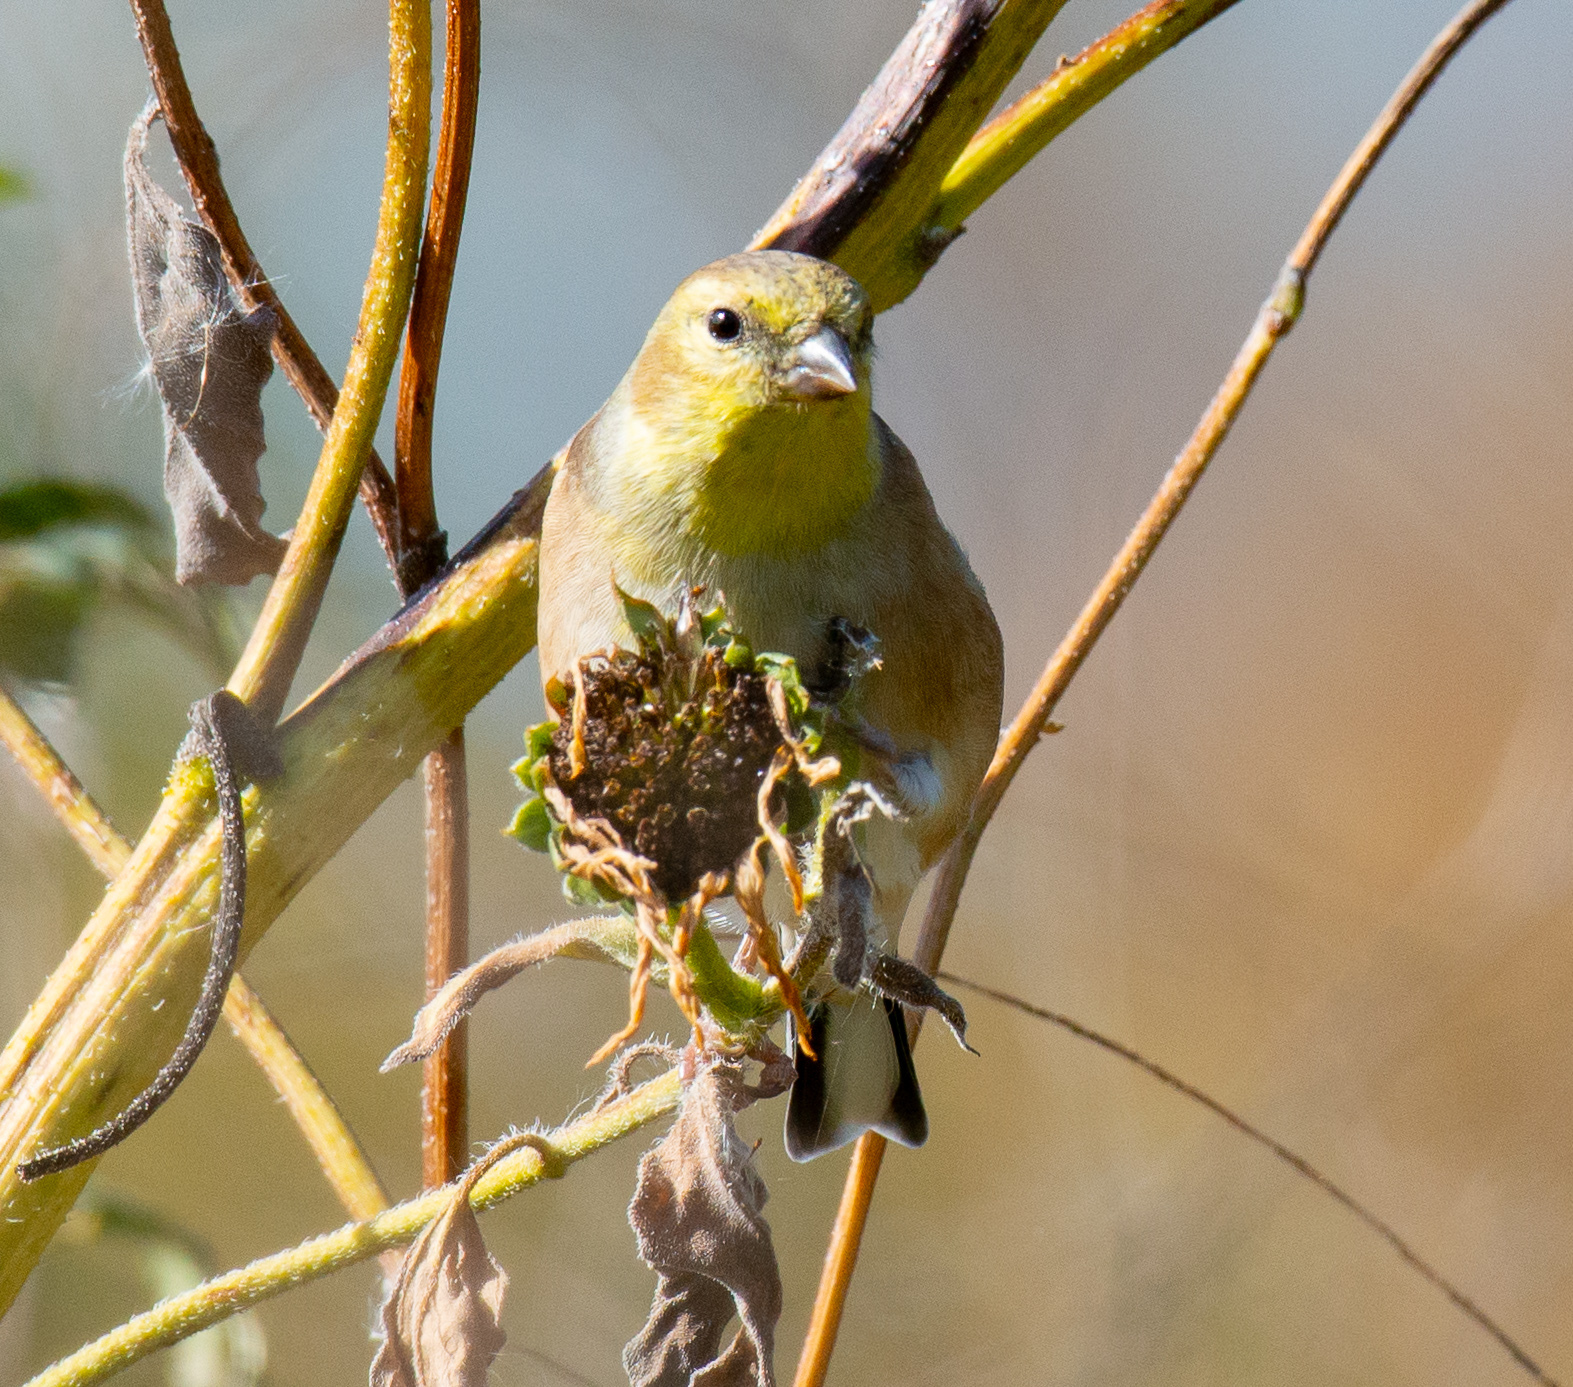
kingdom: Animalia
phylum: Chordata
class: Aves
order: Passeriformes
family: Fringillidae
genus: Spinus
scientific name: Spinus tristis
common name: American goldfinch
